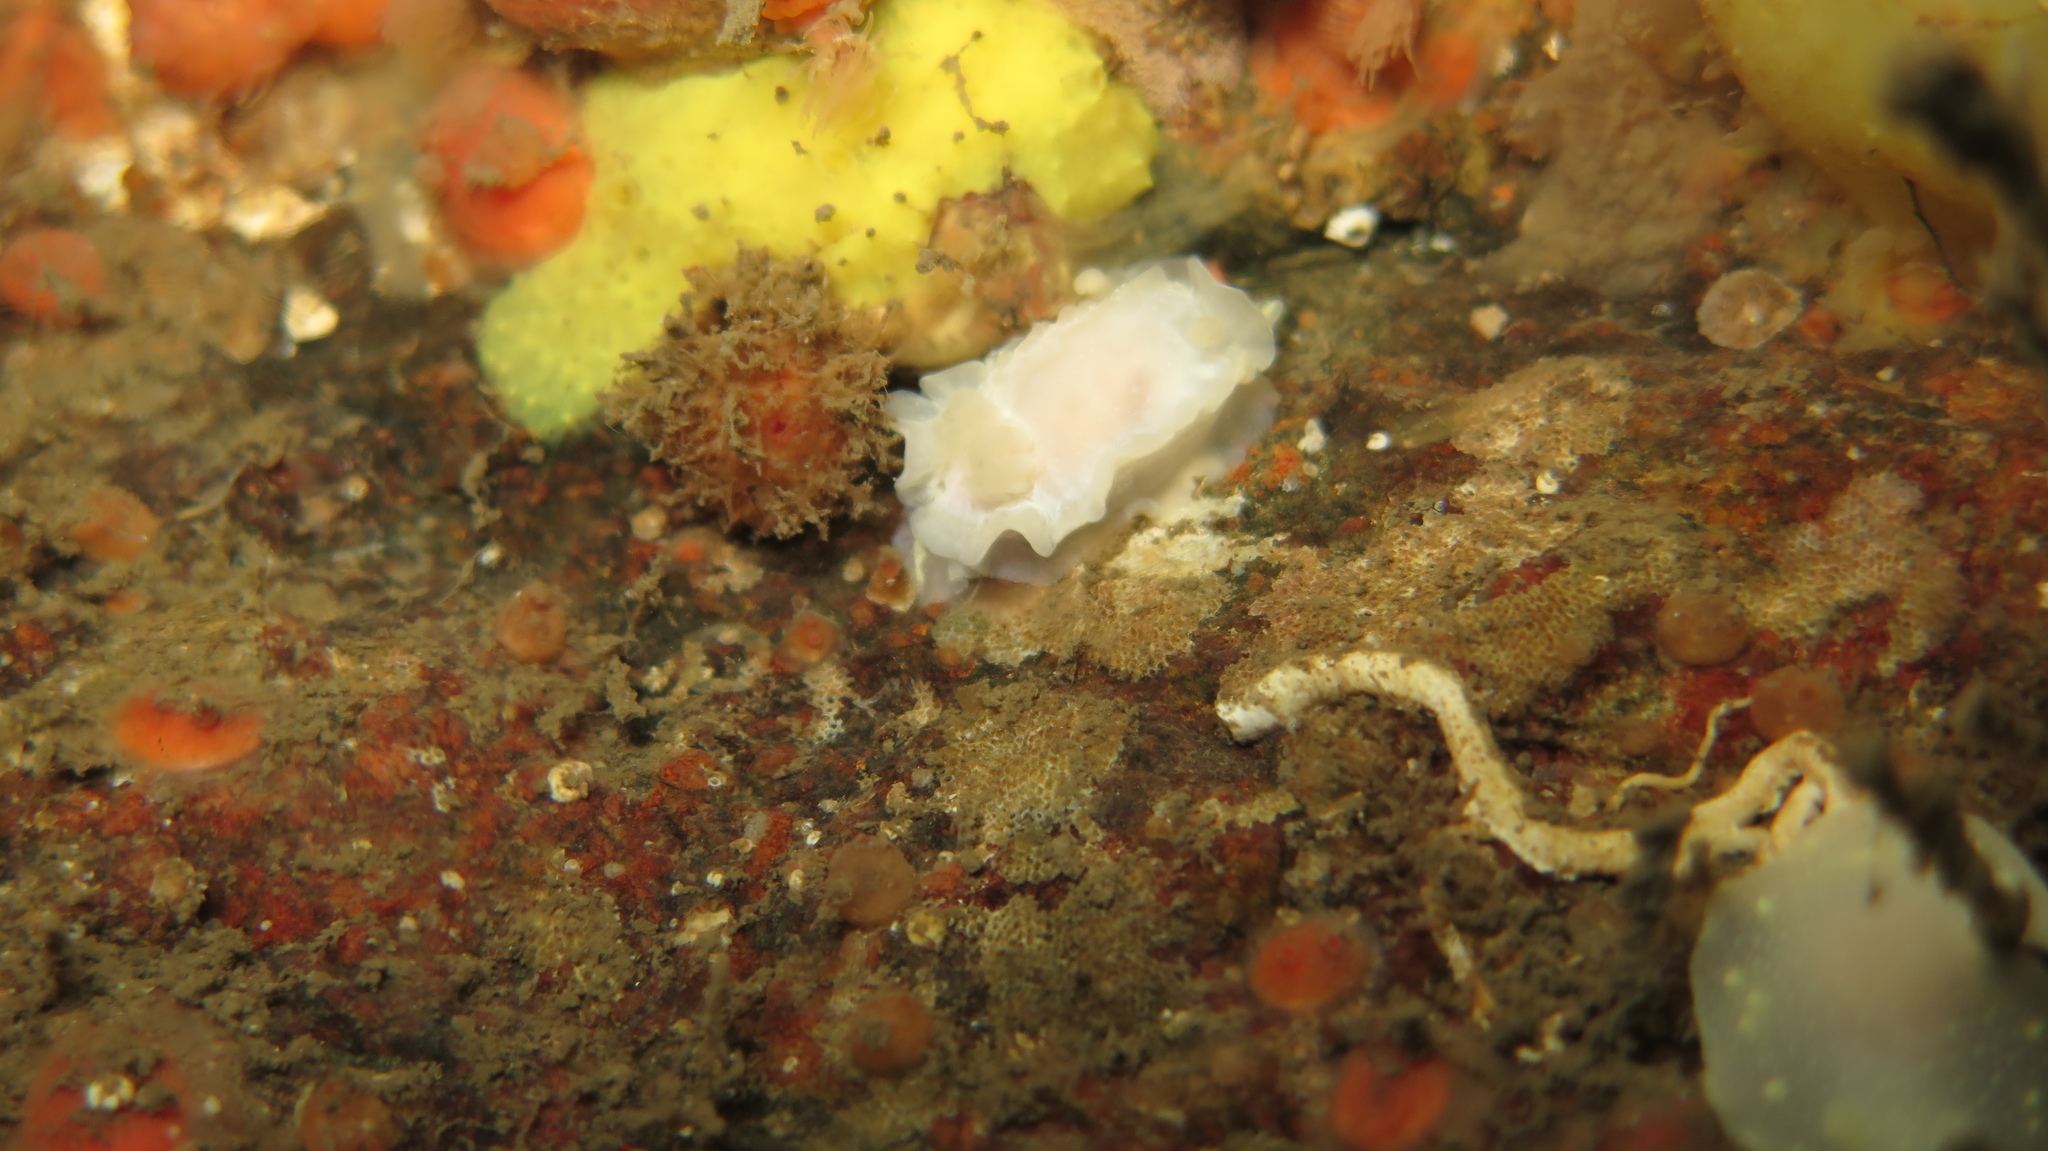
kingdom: Animalia
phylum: Mollusca
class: Gastropoda
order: Nudibranchia
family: Goniodorididae
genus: Okenia
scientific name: Okenia
